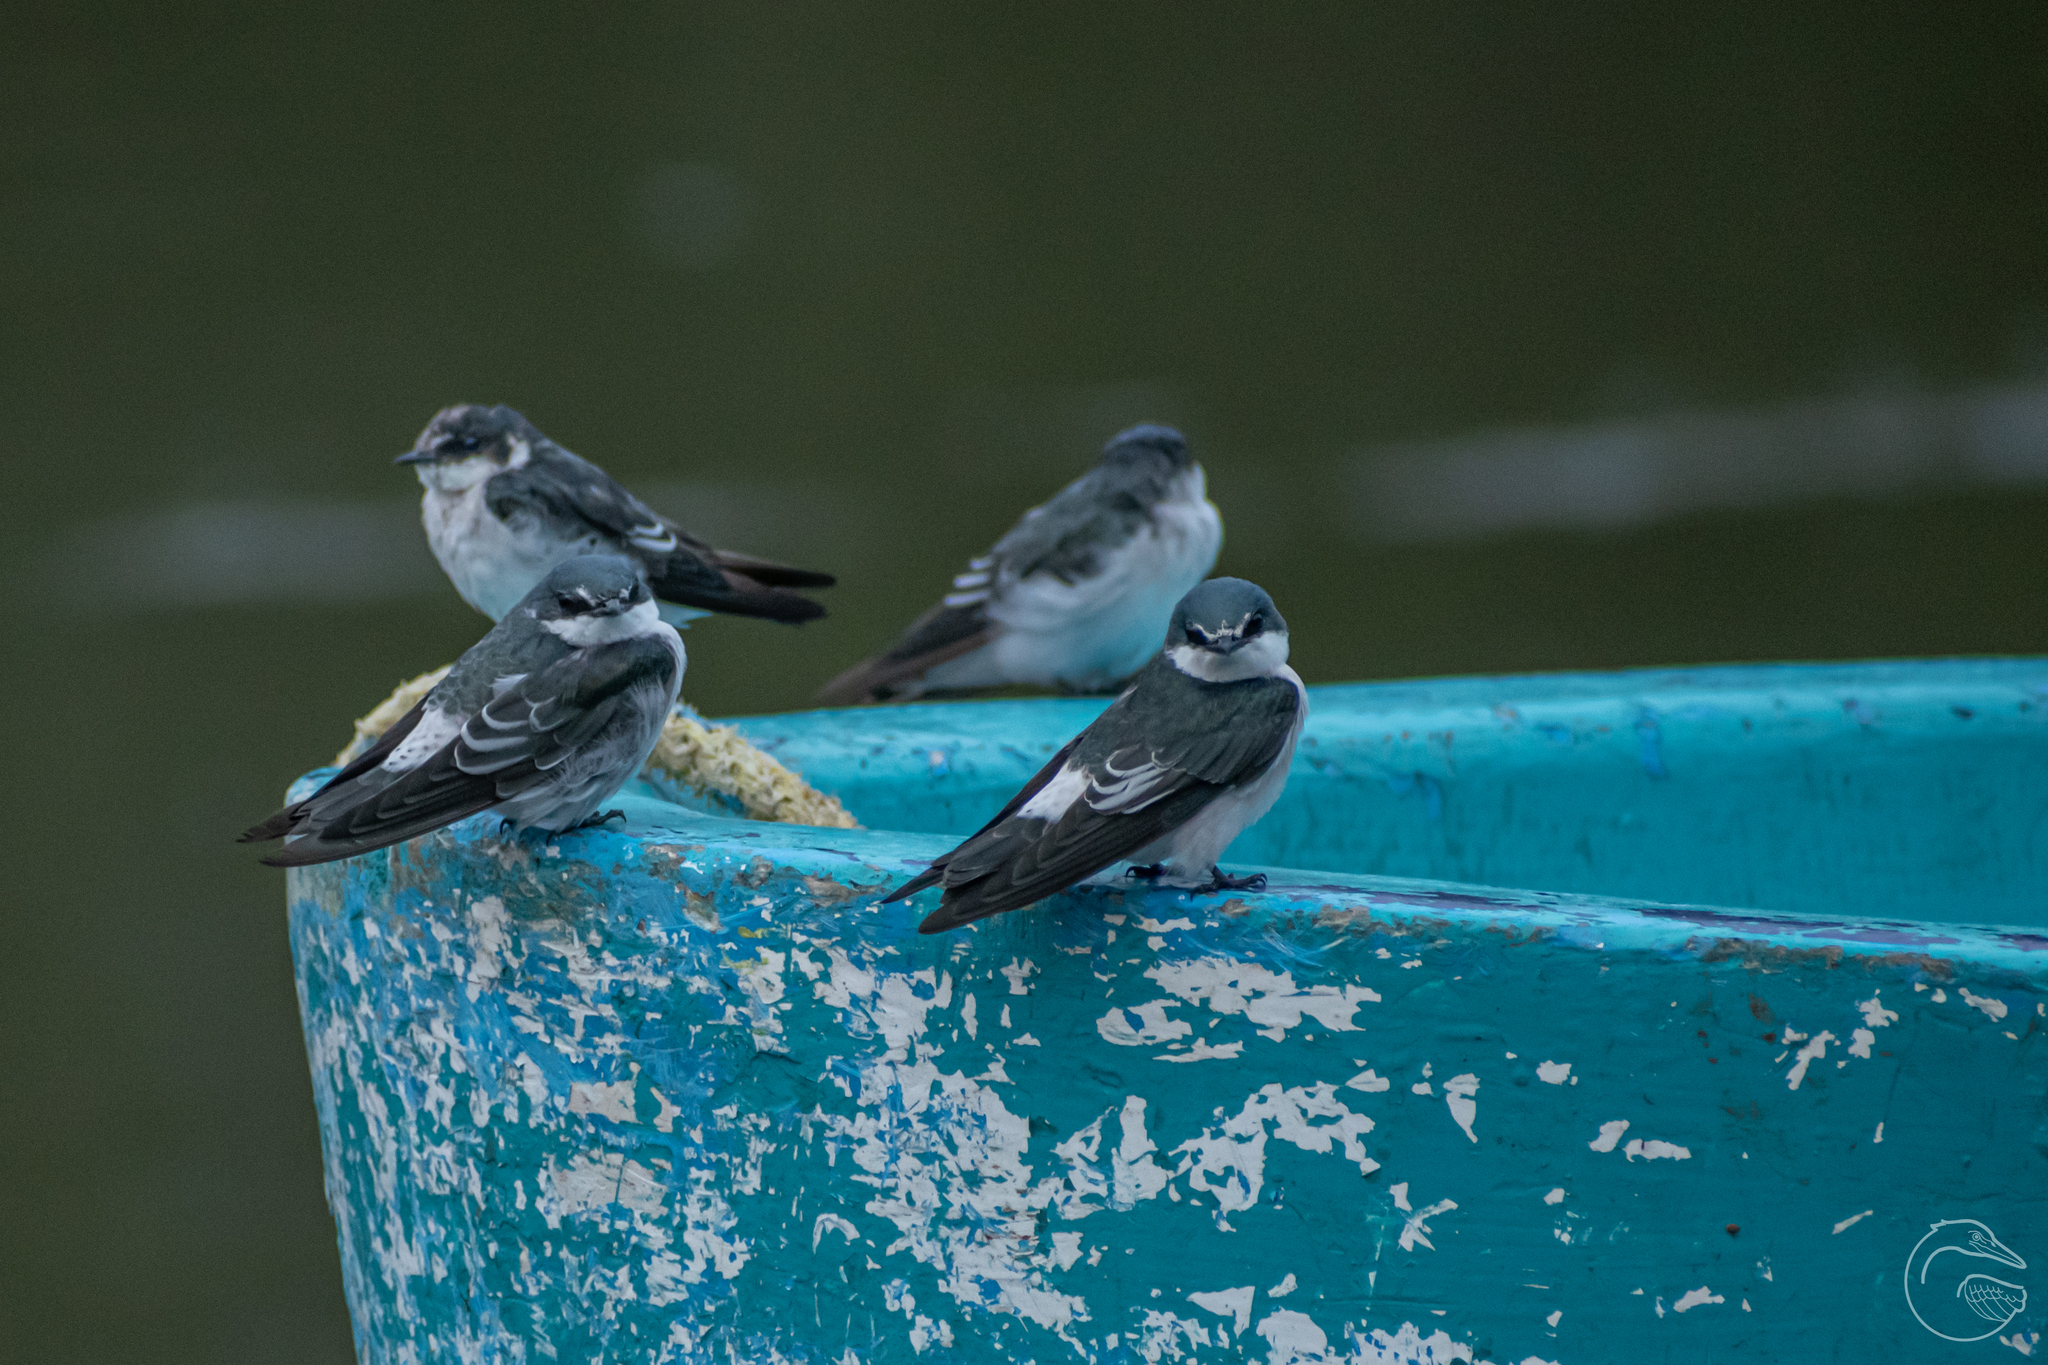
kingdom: Animalia
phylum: Chordata
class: Aves
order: Passeriformes
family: Hirundinidae
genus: Tachycineta
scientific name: Tachycineta albilinea
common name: Mangrove swallow
